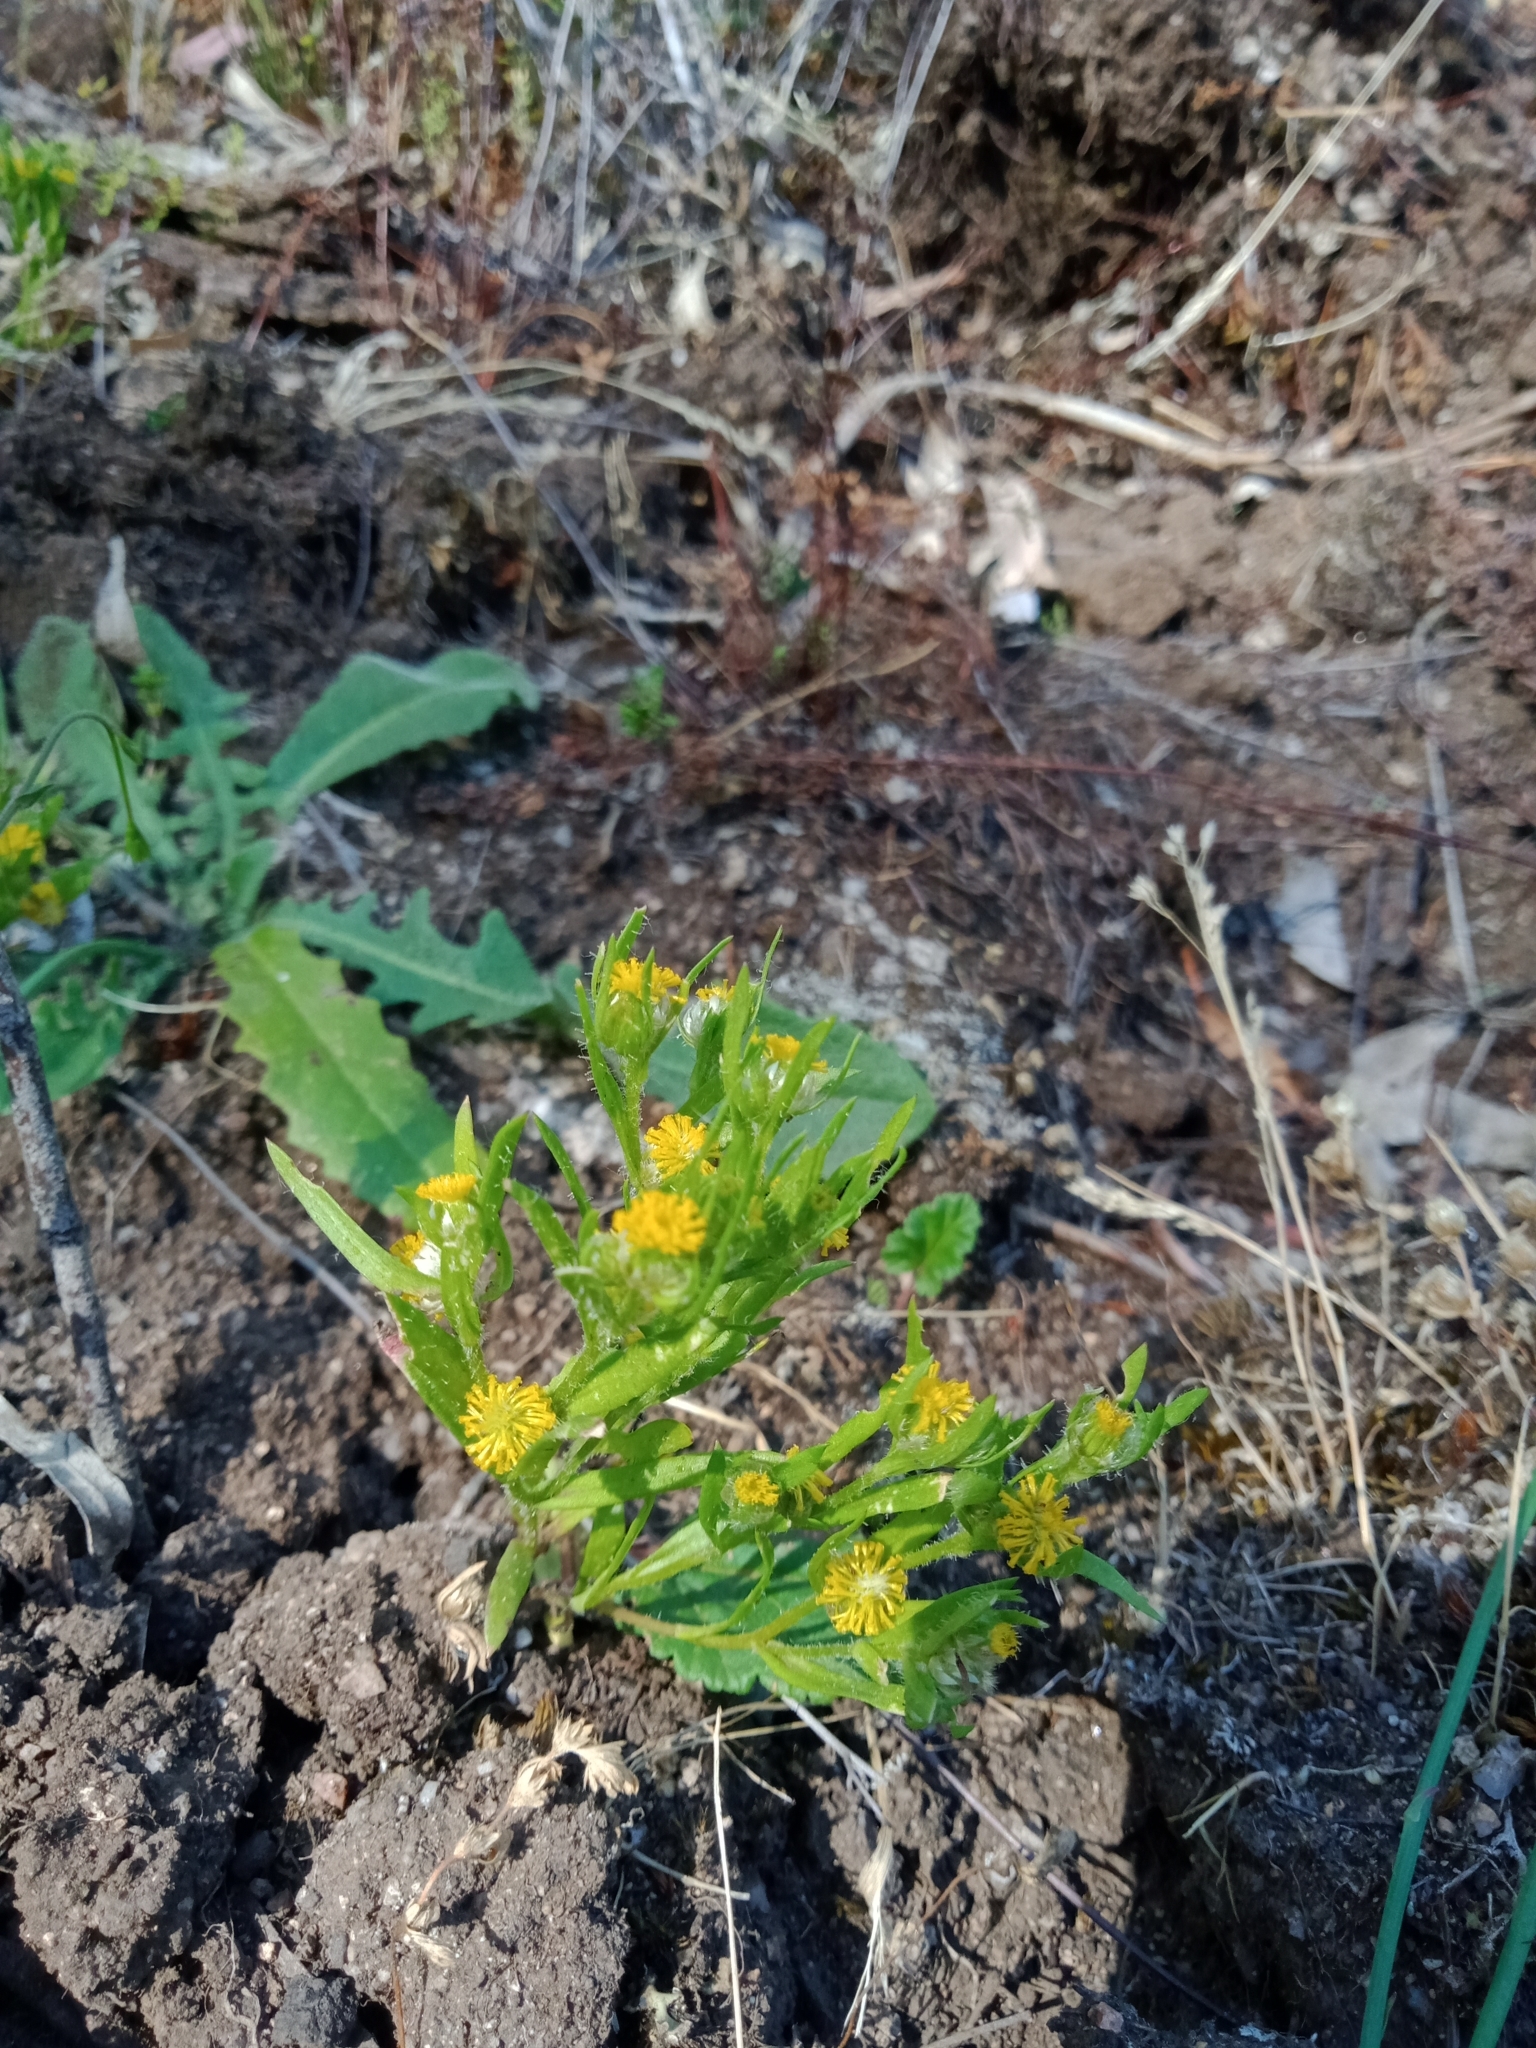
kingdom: Plantae
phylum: Tracheophyta
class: Magnoliopsida
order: Asterales
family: Asteraceae
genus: Triptilodiscus
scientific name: Triptilodiscus pygmaeus
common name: Common sunray
